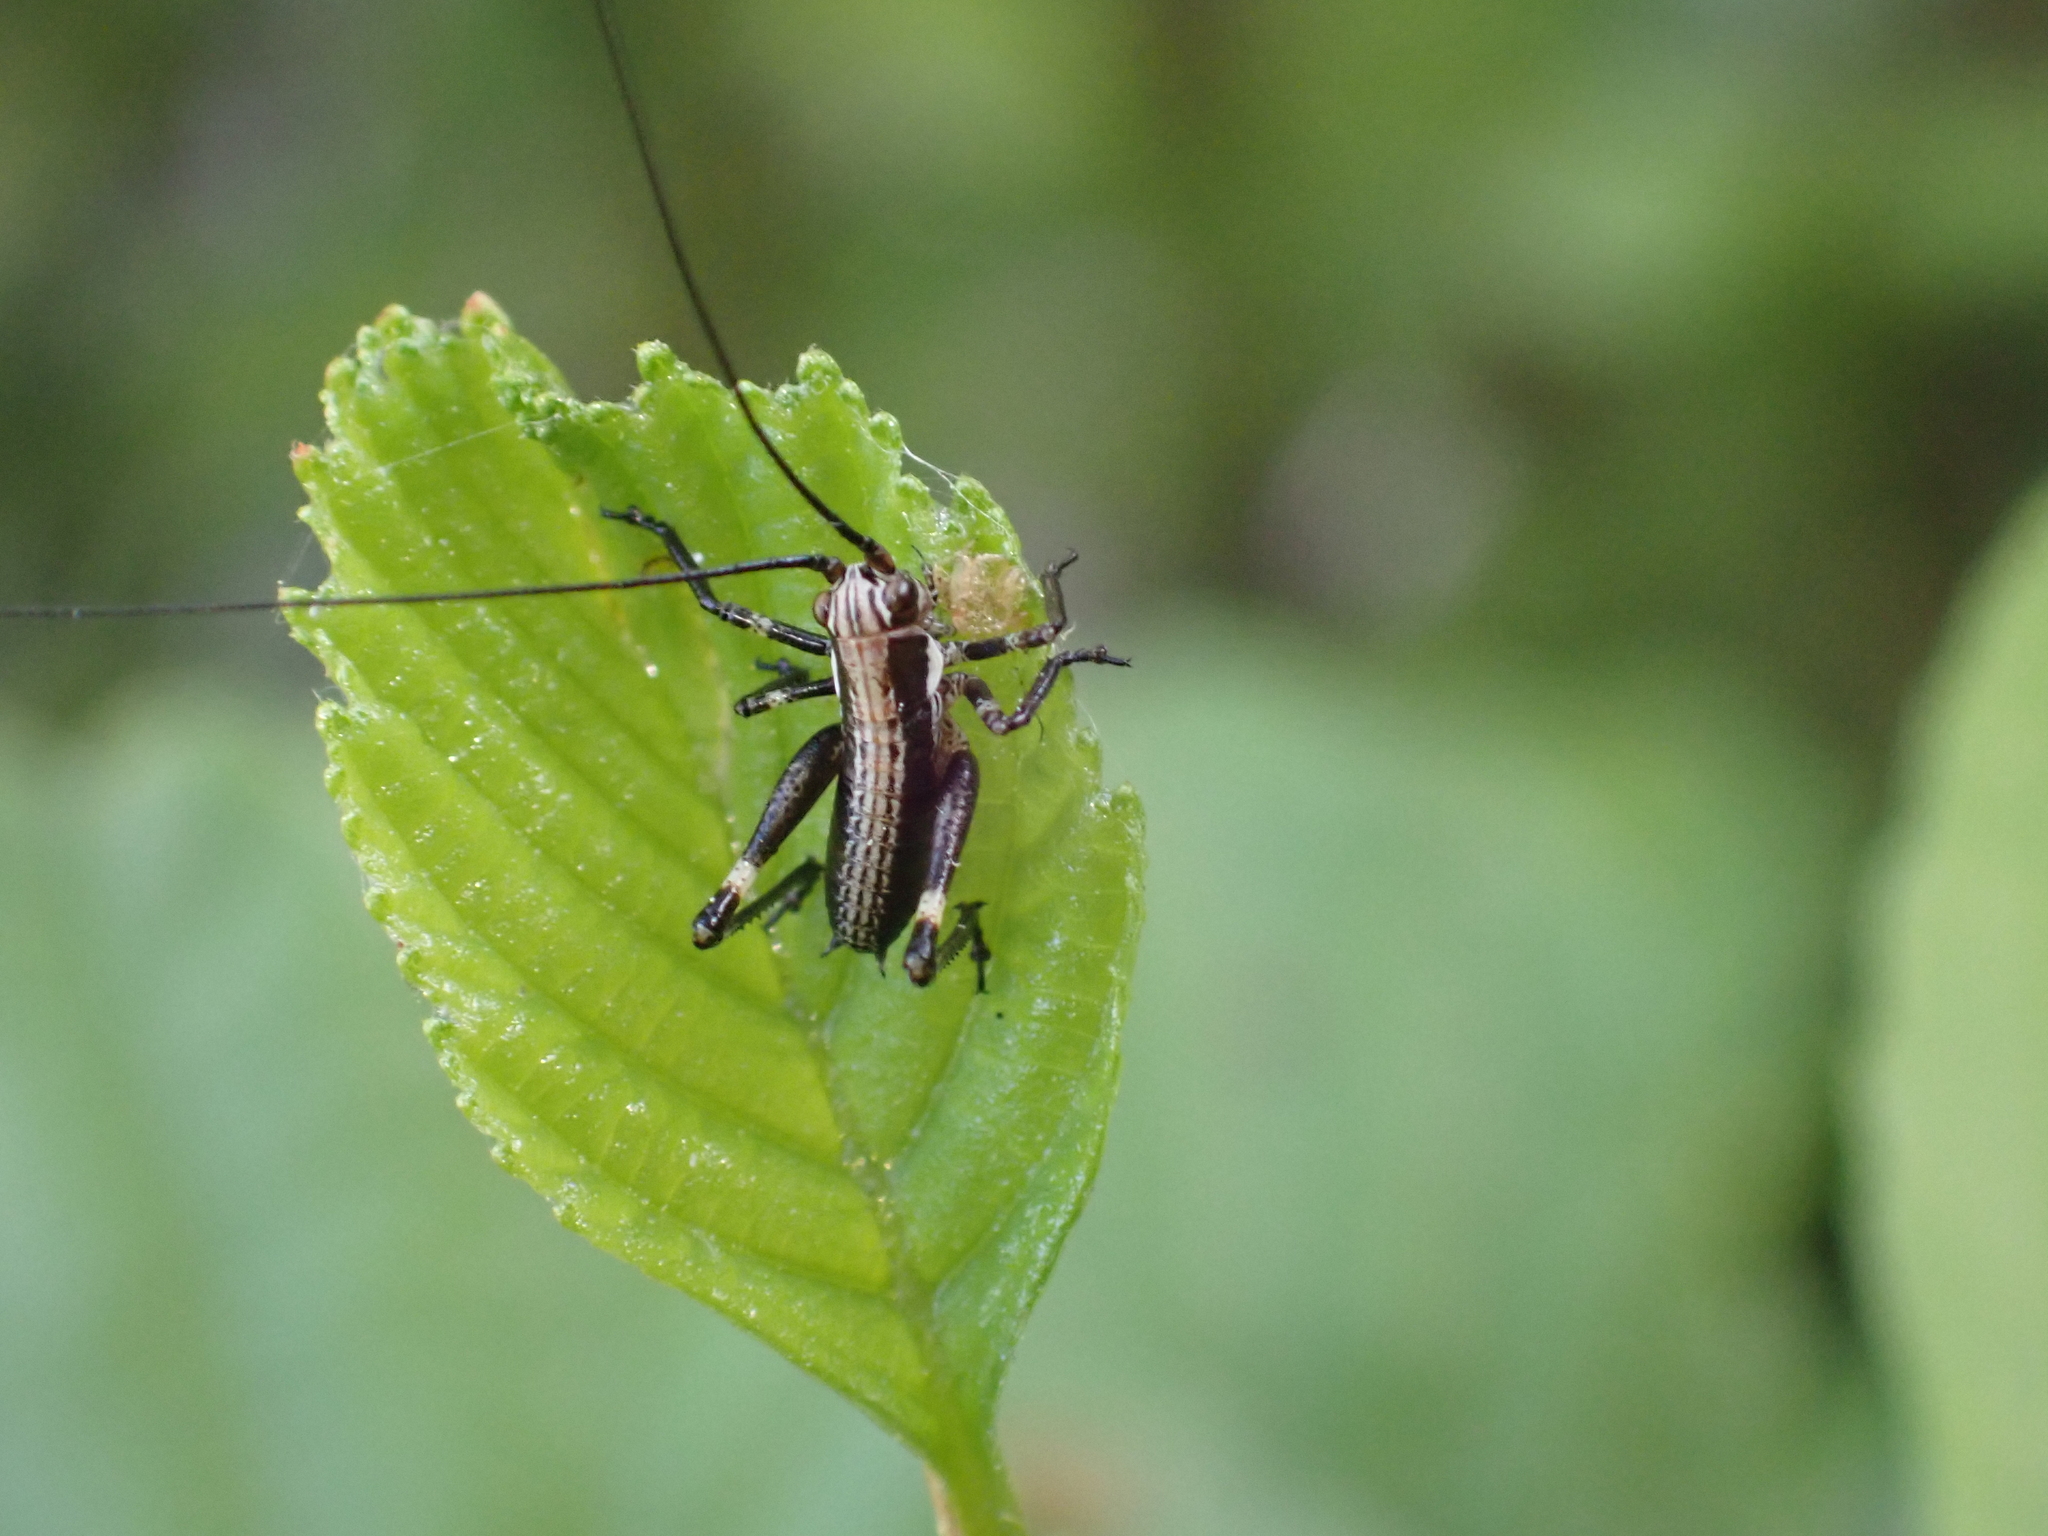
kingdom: Animalia
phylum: Arthropoda
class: Insecta
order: Orthoptera
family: Tettigoniidae
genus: Antaxius
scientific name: Antaxius pedestris
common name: Common mountain bush-cricket
